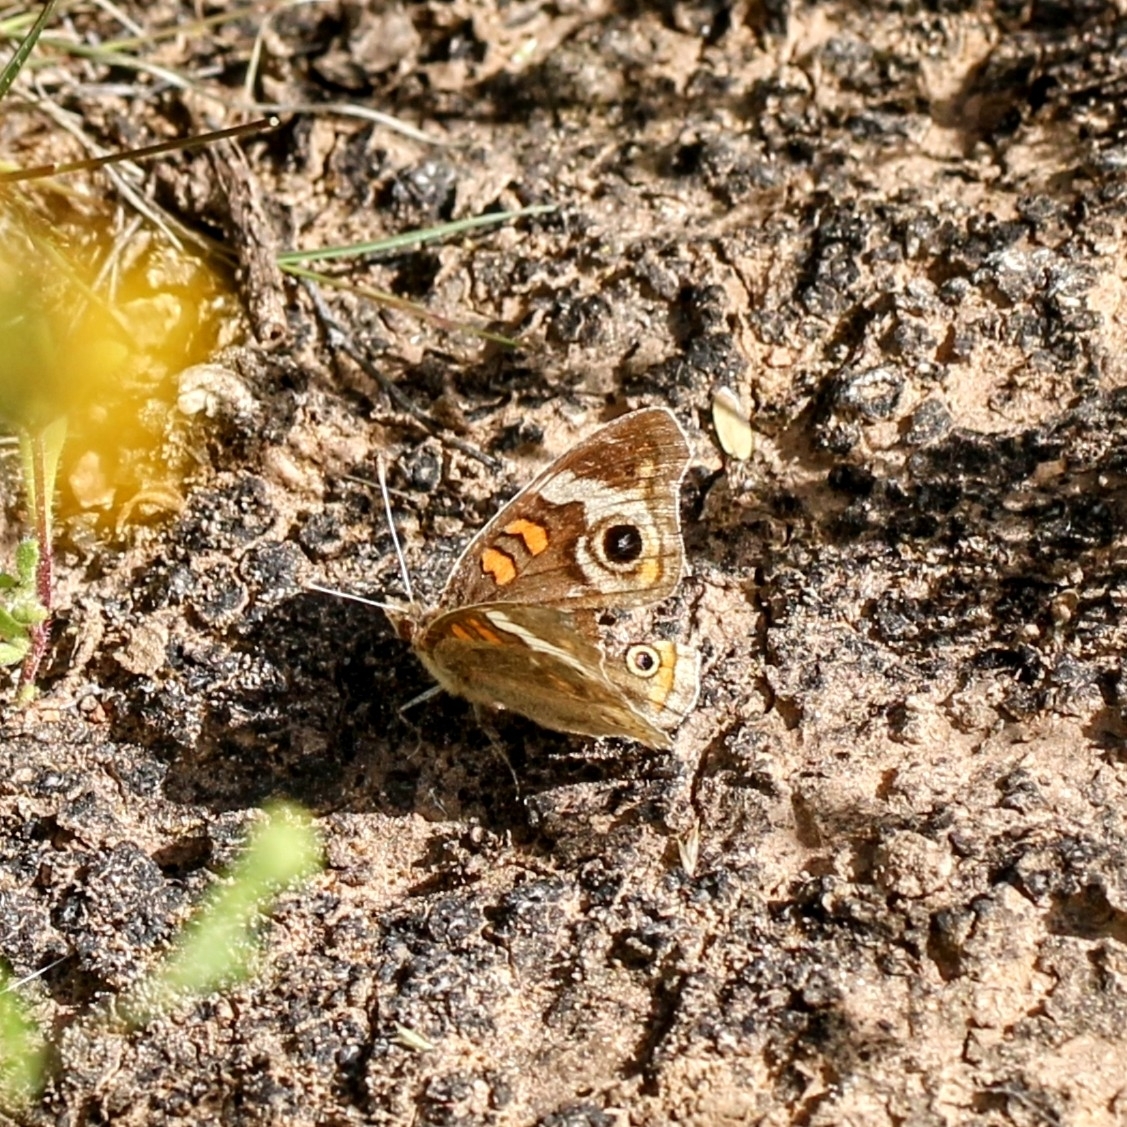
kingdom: Animalia
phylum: Arthropoda
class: Insecta
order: Lepidoptera
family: Nymphalidae
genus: Junonia
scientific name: Junonia grisea
